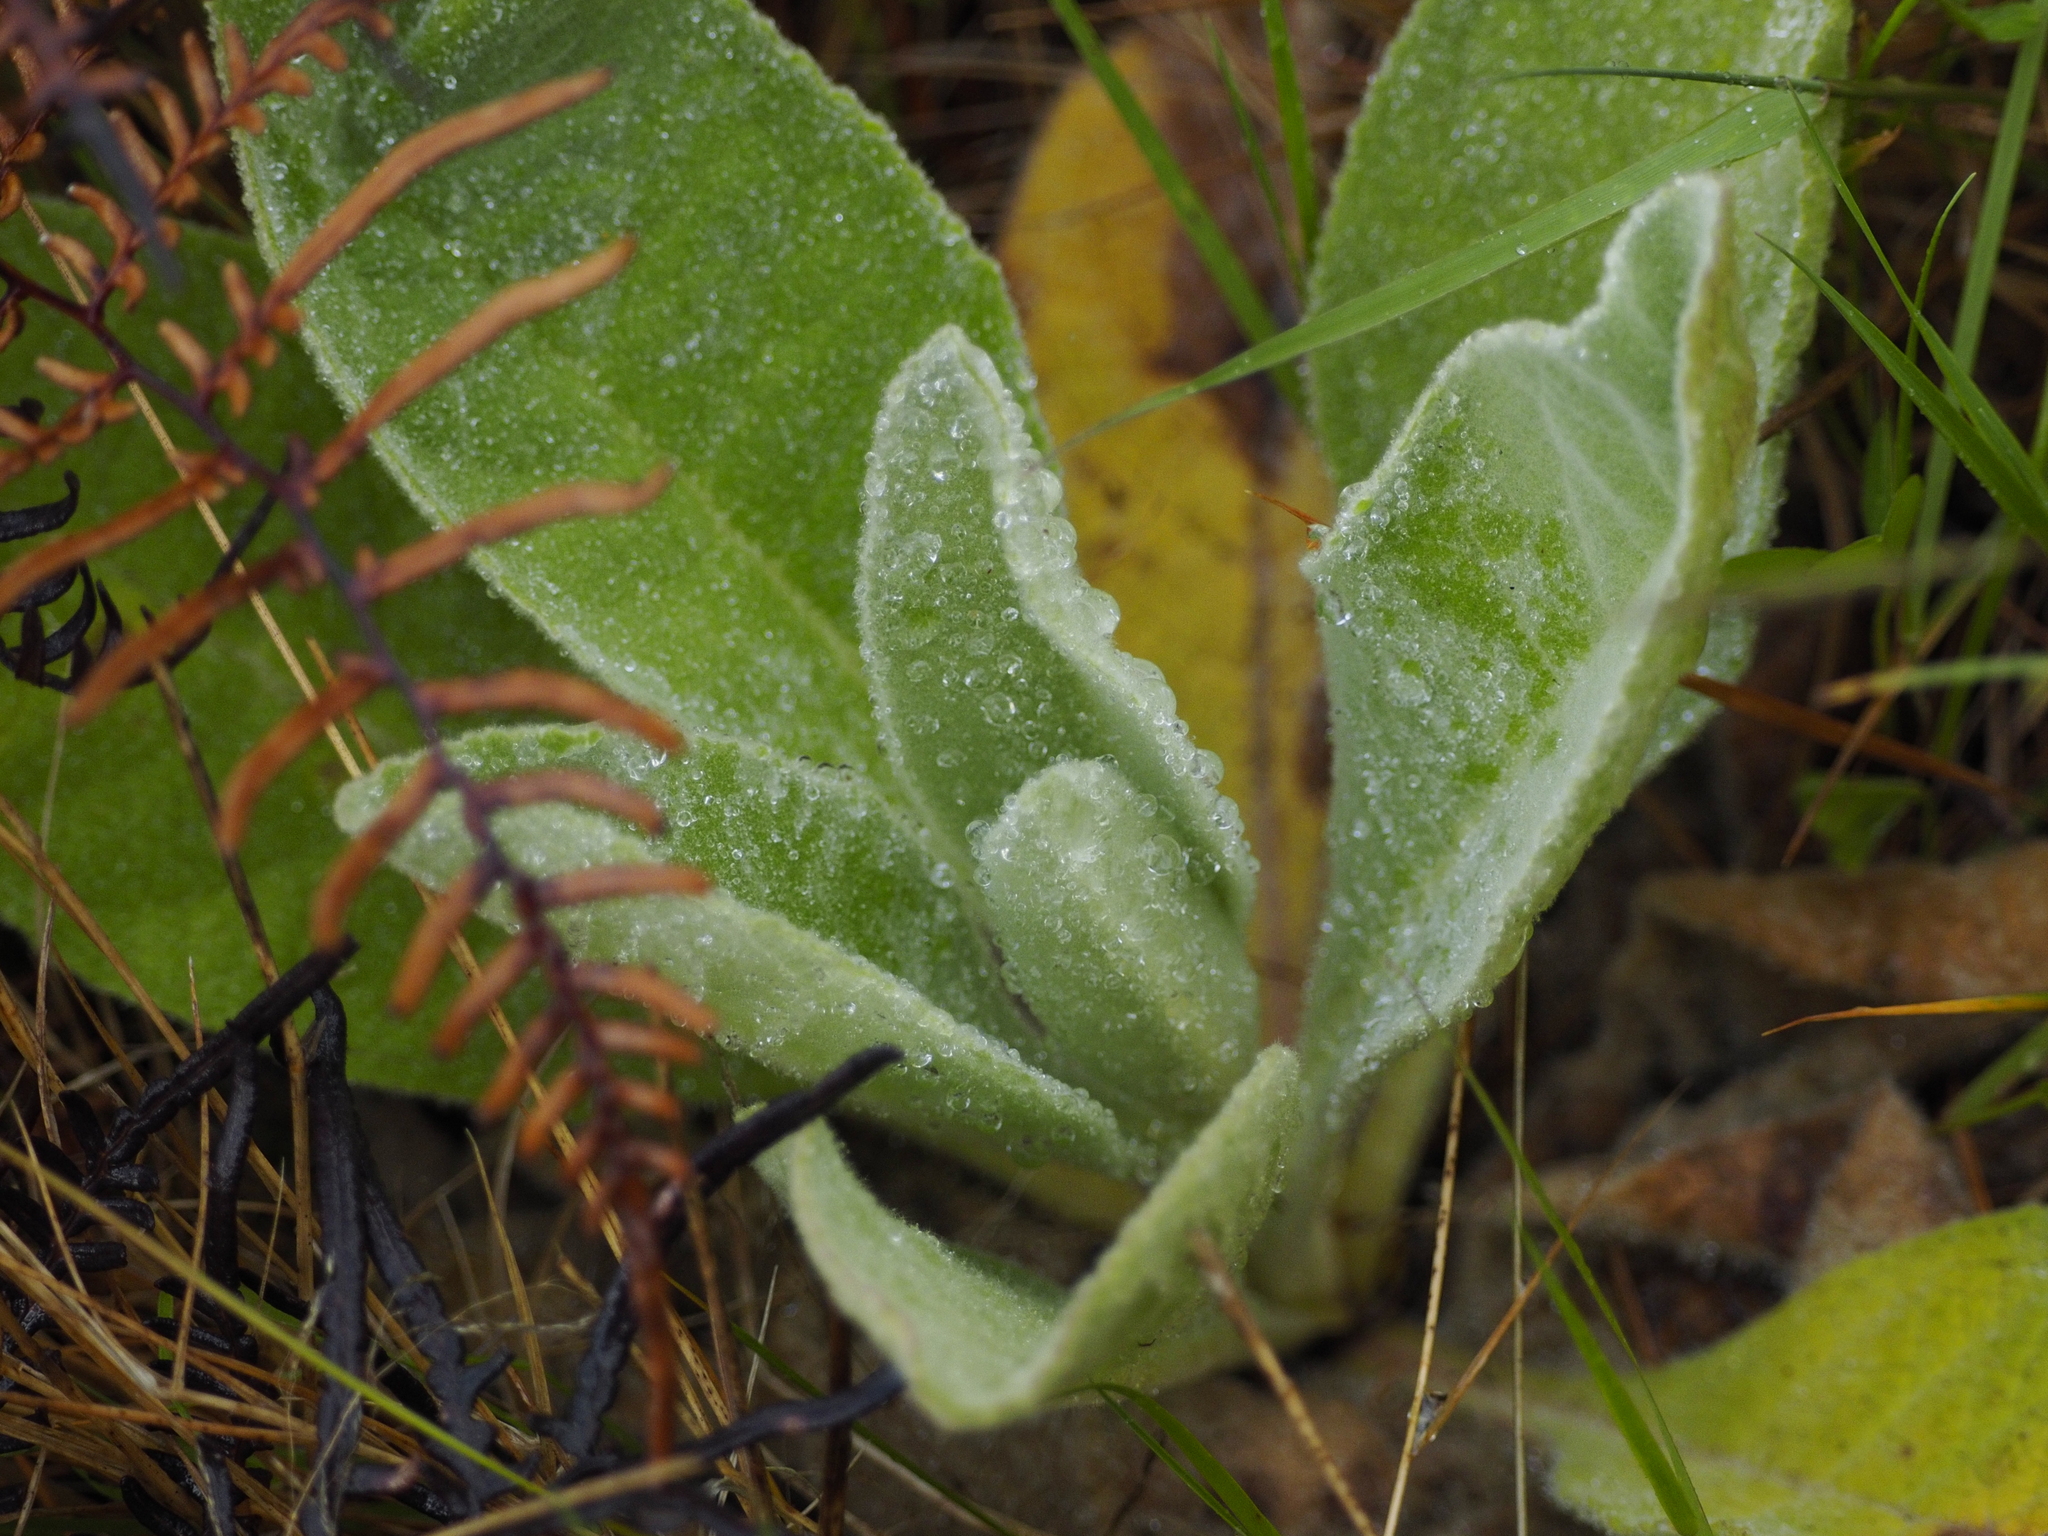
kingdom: Plantae
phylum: Tracheophyta
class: Magnoliopsida
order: Lamiales
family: Scrophulariaceae
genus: Verbascum
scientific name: Verbascum thapsus
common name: Common mullein
